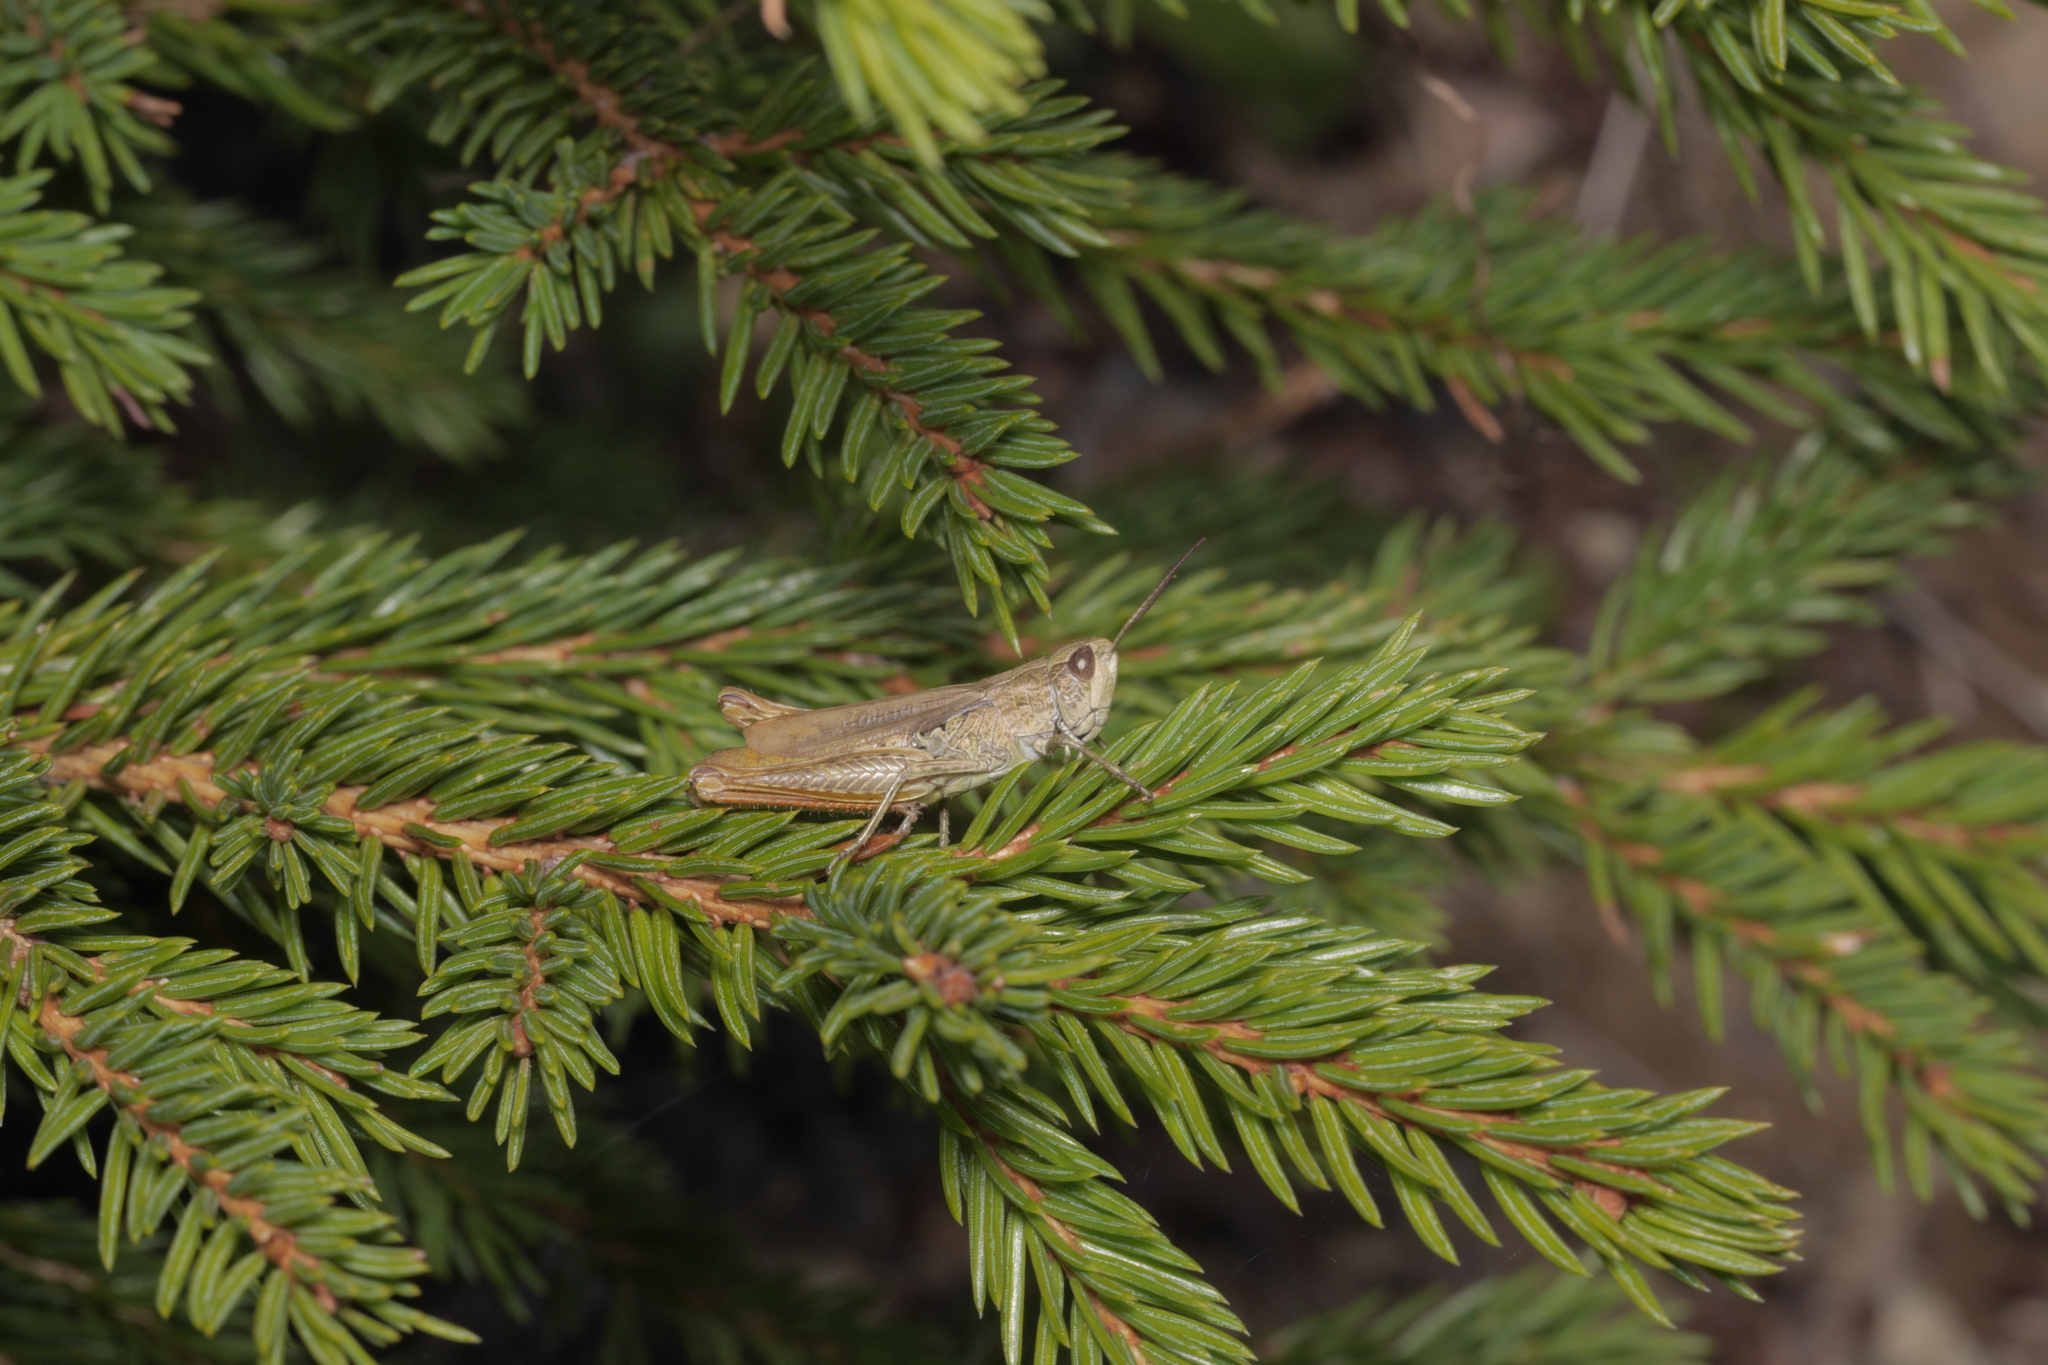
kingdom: Animalia
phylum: Arthropoda
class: Insecta
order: Orthoptera
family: Acrididae
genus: Chorthippus
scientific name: Chorthippus apricarius
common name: Upland field grasshopper
